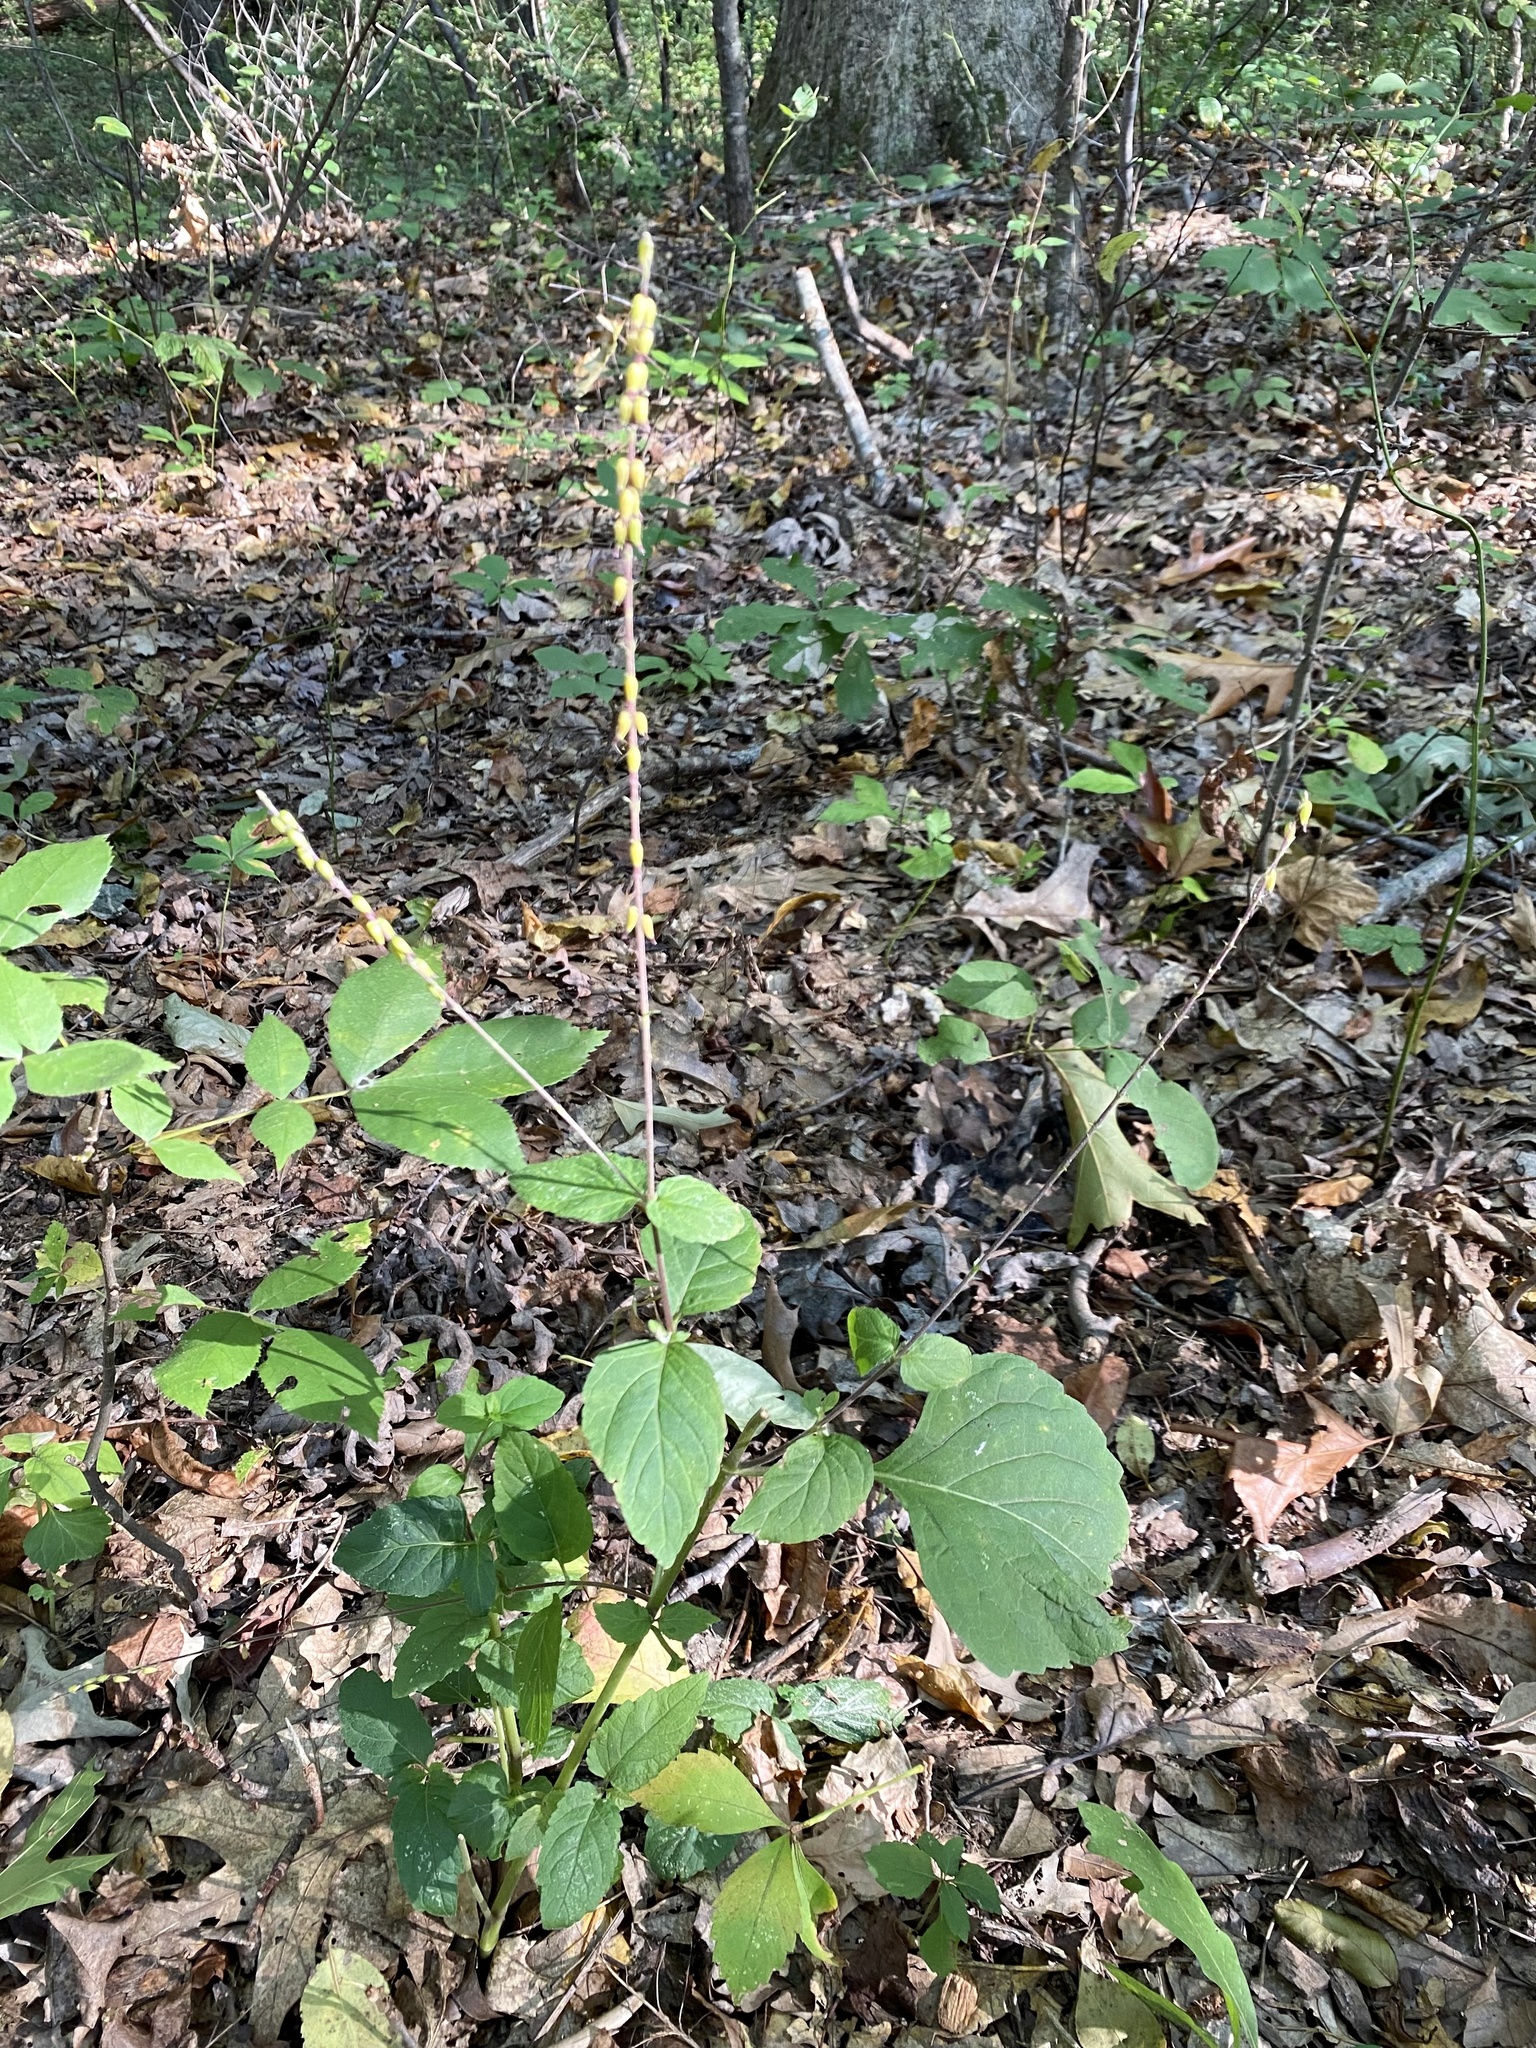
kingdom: Plantae
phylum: Tracheophyta
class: Magnoliopsida
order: Lamiales
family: Phrymaceae
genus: Phryma
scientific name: Phryma leptostachya
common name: American lopseed
